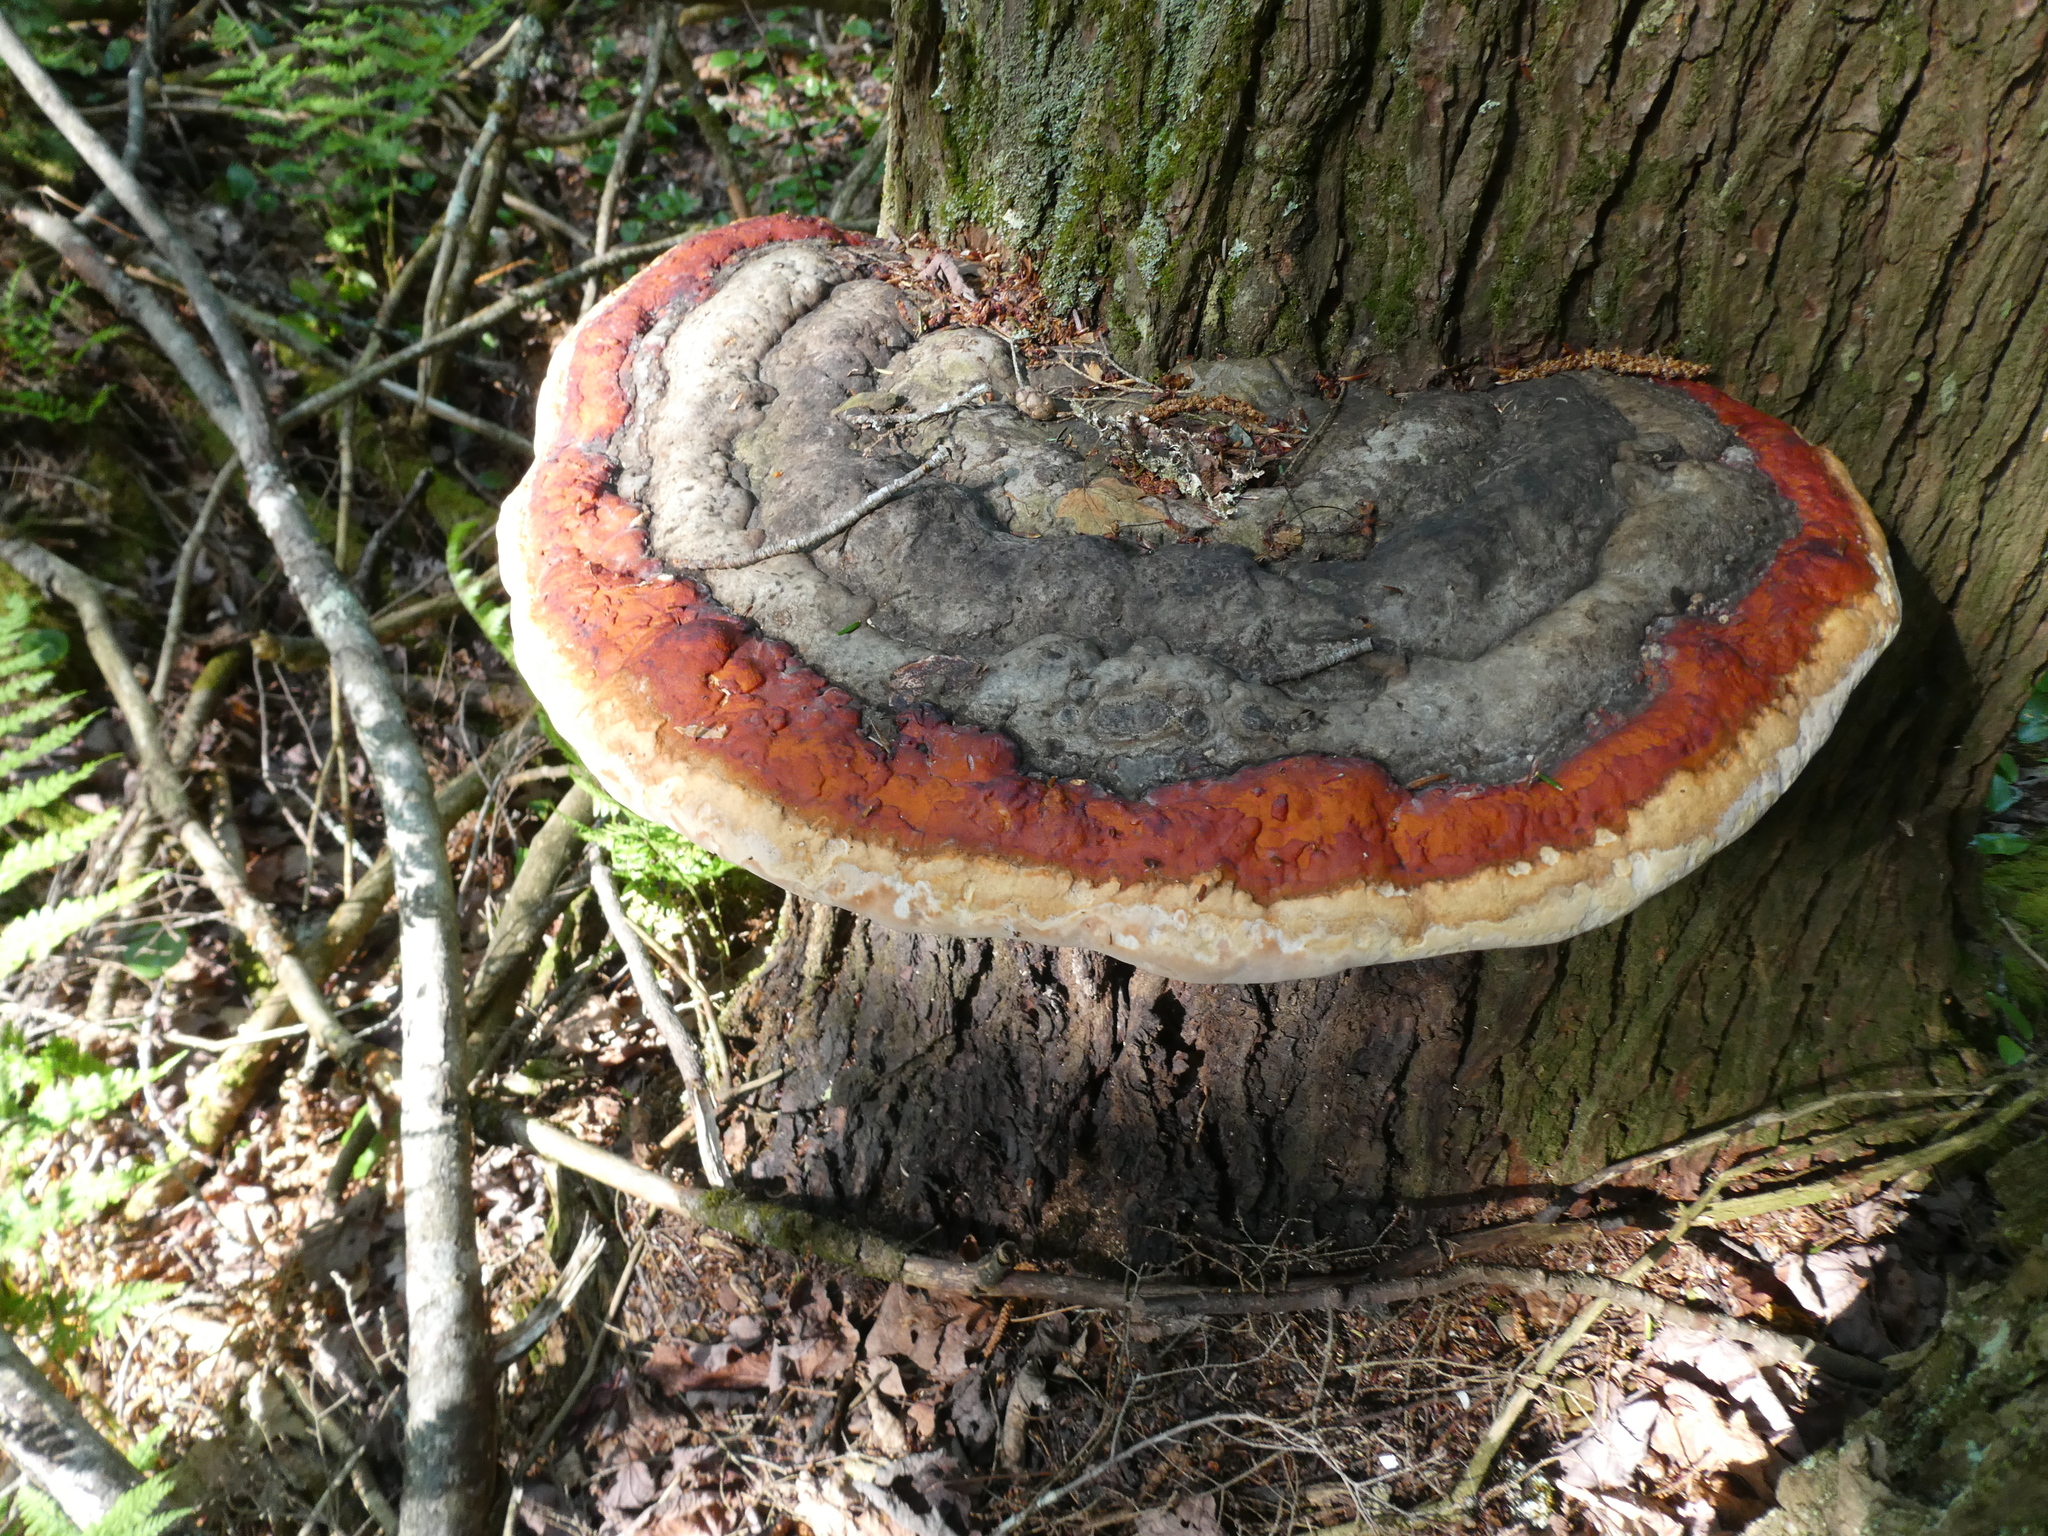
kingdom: Animalia
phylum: Arthropoda
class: Insecta
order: Coleoptera
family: Zopheridae
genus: Phellopsis
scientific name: Phellopsis obcordata
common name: Eastern ironclad beetle
